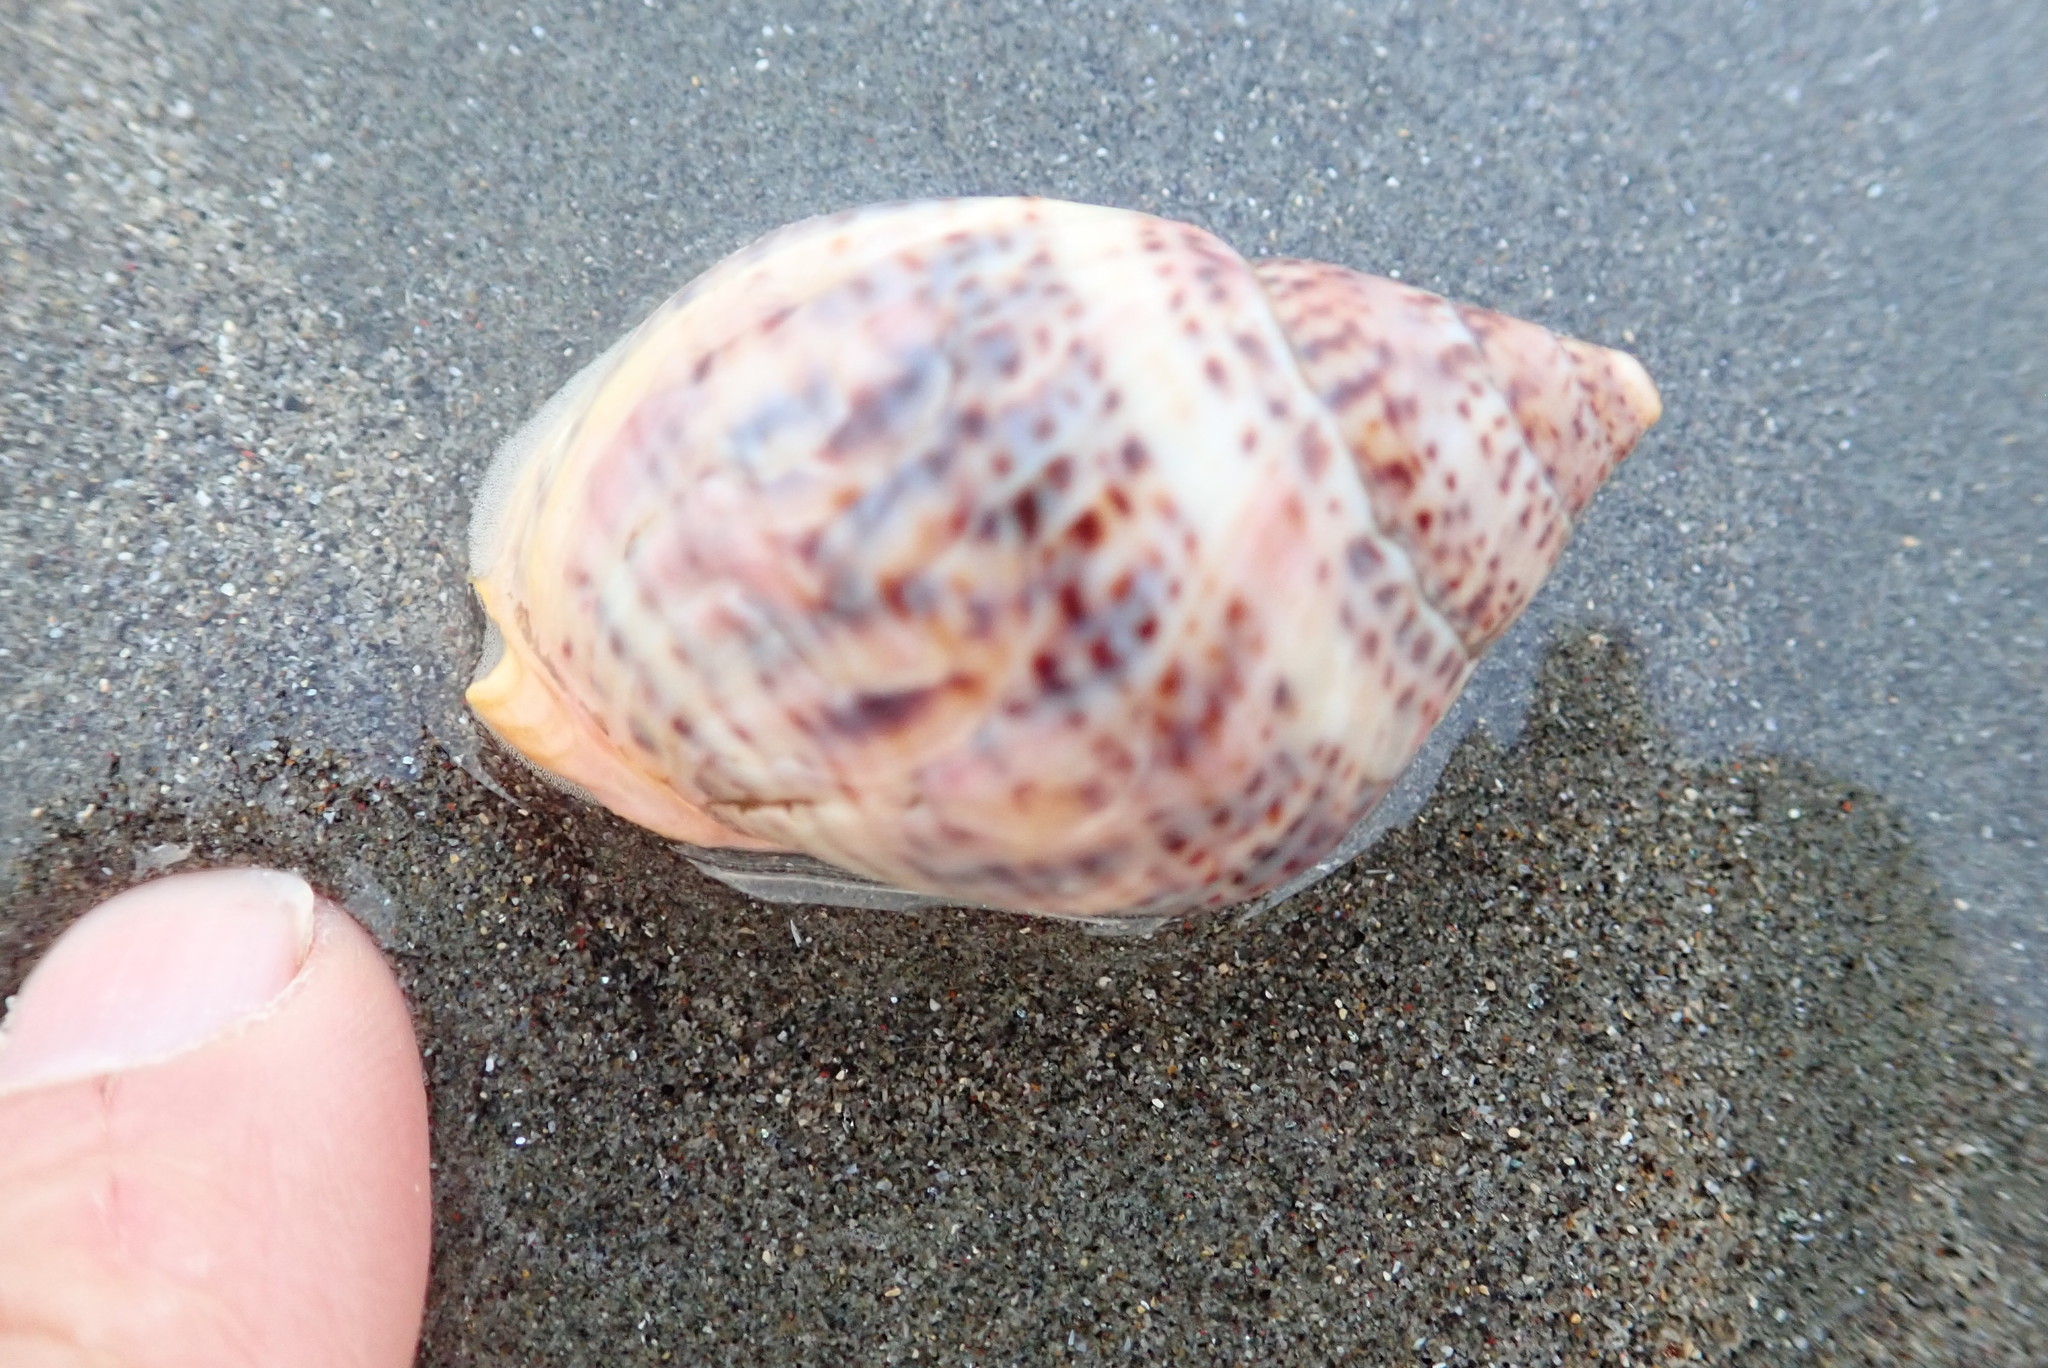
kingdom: Animalia
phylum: Mollusca
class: Gastropoda
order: Neogastropoda
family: Cominellidae
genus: Cominella
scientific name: Cominella adspersa
